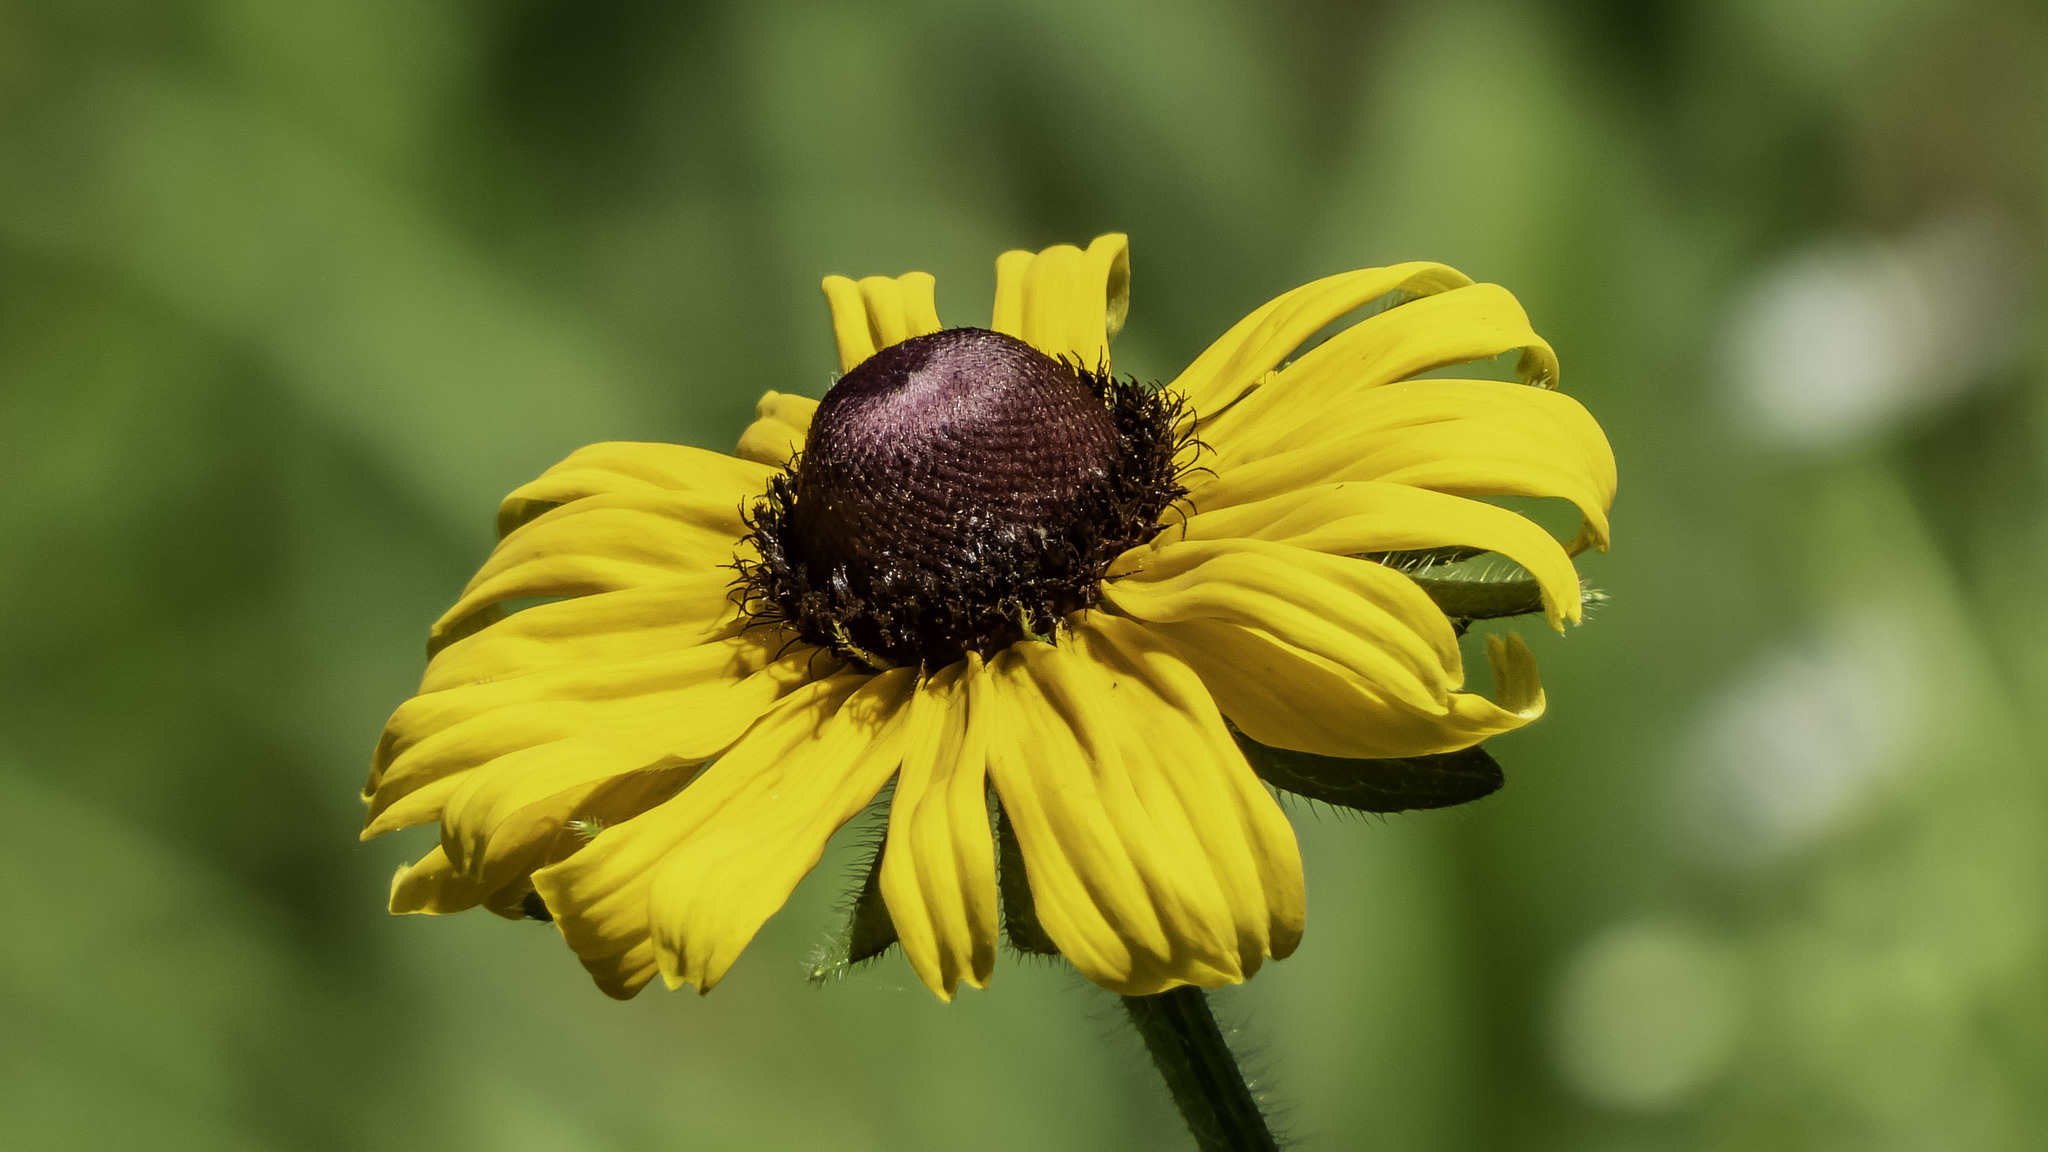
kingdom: Plantae
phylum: Tracheophyta
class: Magnoliopsida
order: Asterales
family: Asteraceae
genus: Rudbeckia
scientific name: Rudbeckia hirta
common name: Black-eyed-susan
